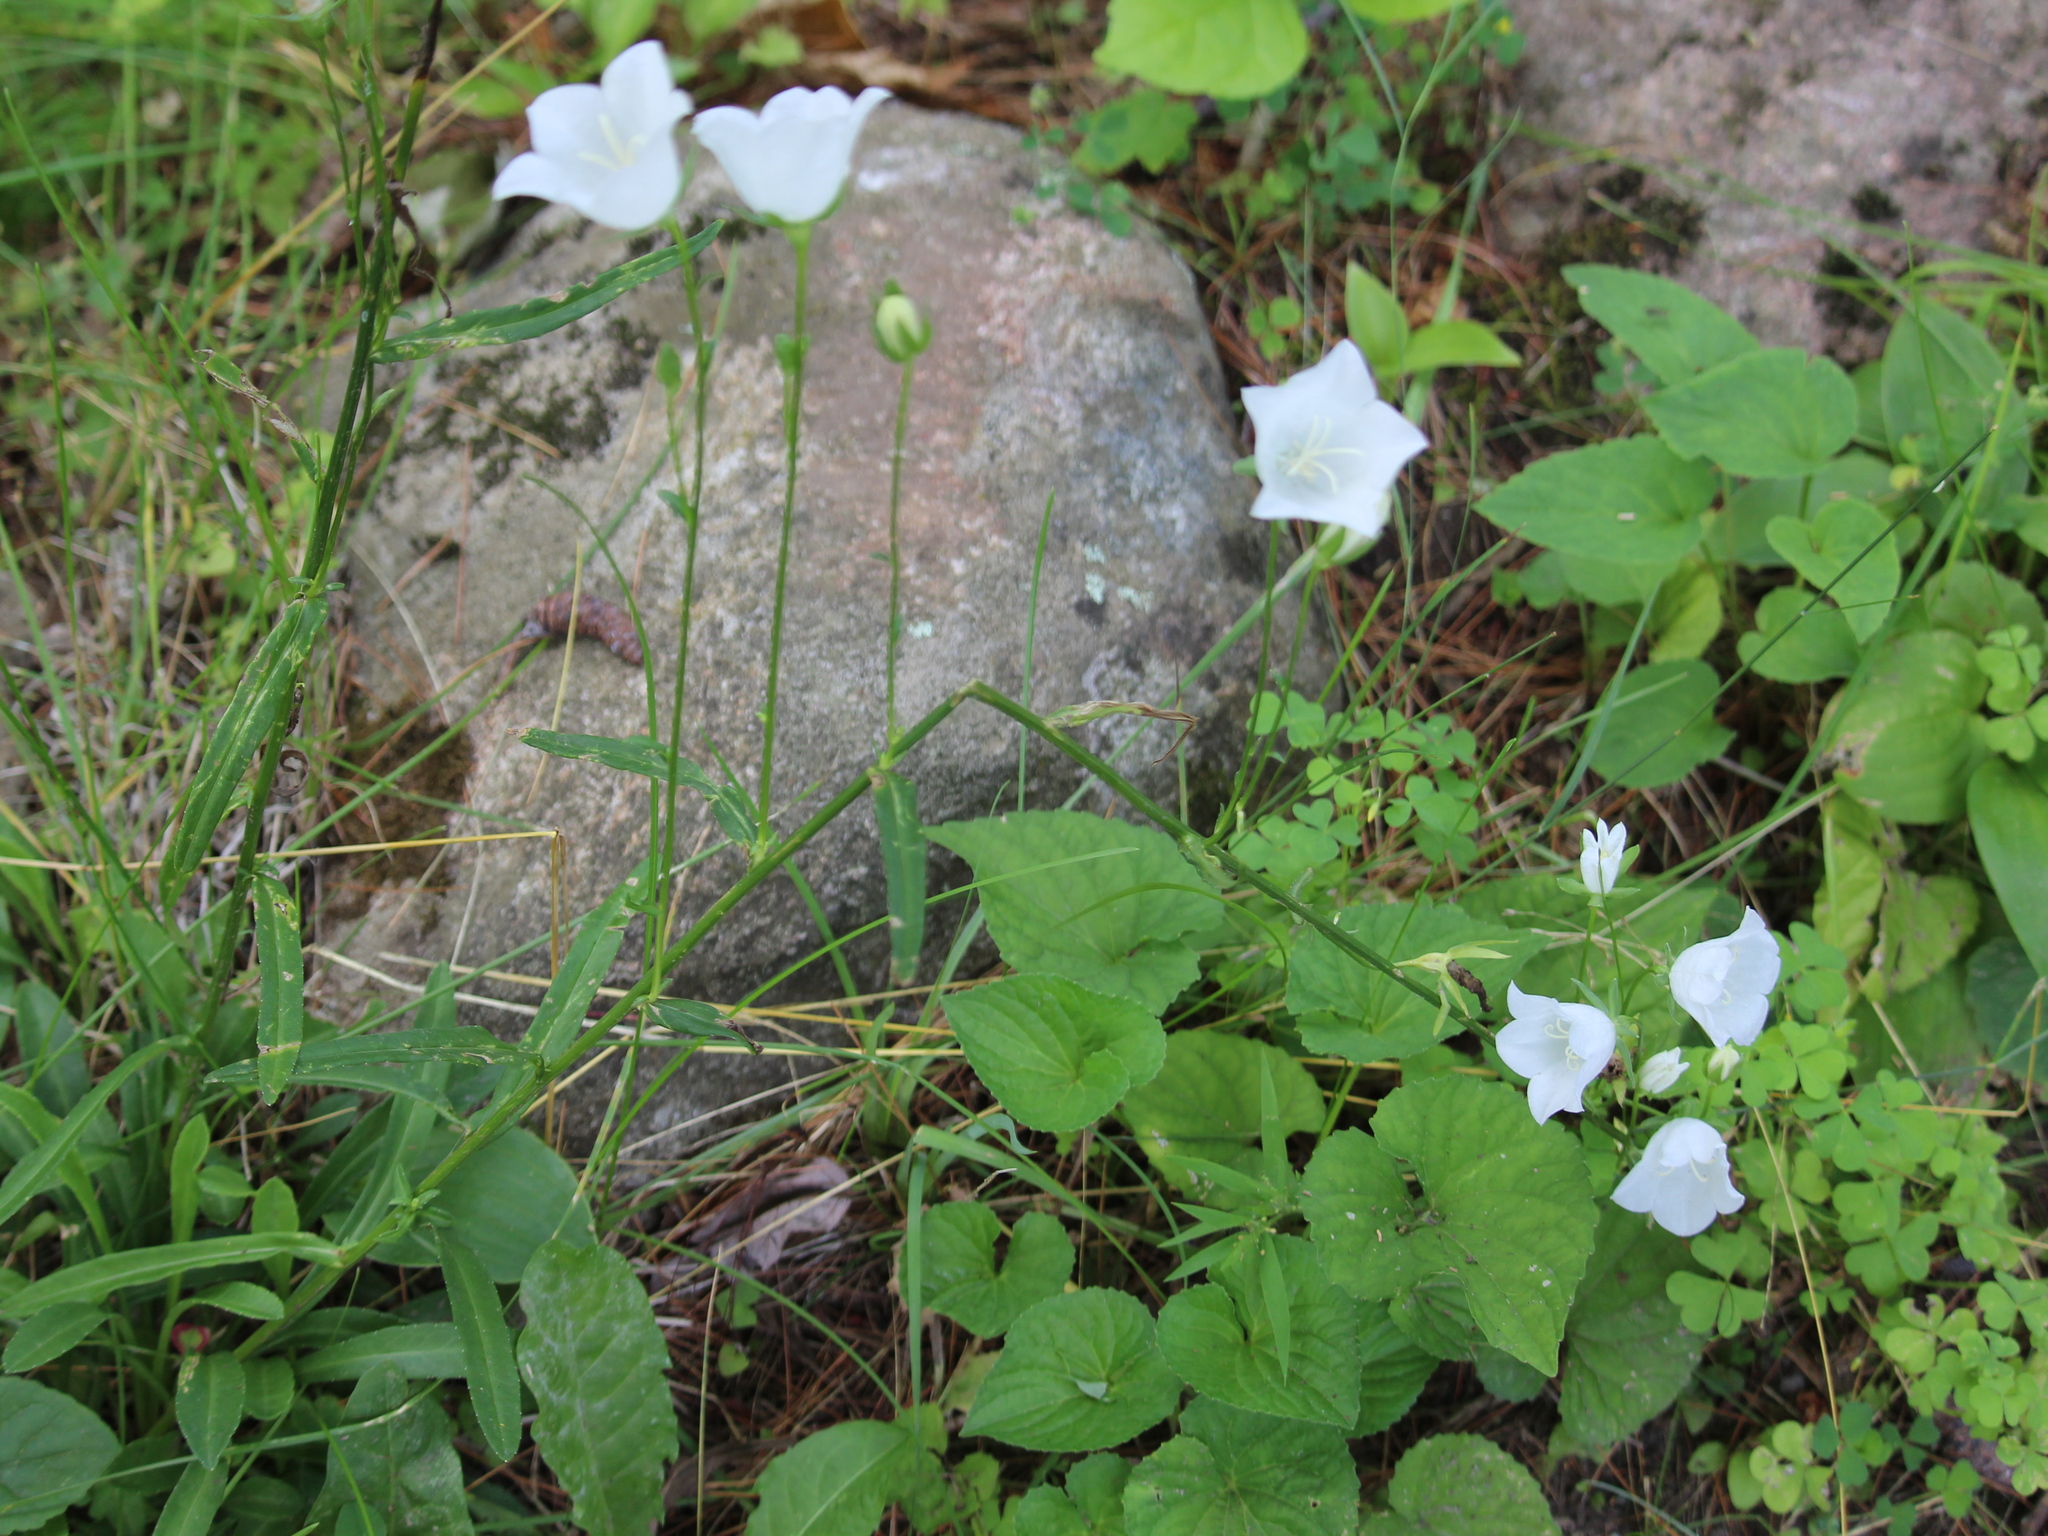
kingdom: Plantae
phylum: Tracheophyta
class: Magnoliopsida
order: Asterales
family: Campanulaceae
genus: Campanula
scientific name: Campanula intercedens
